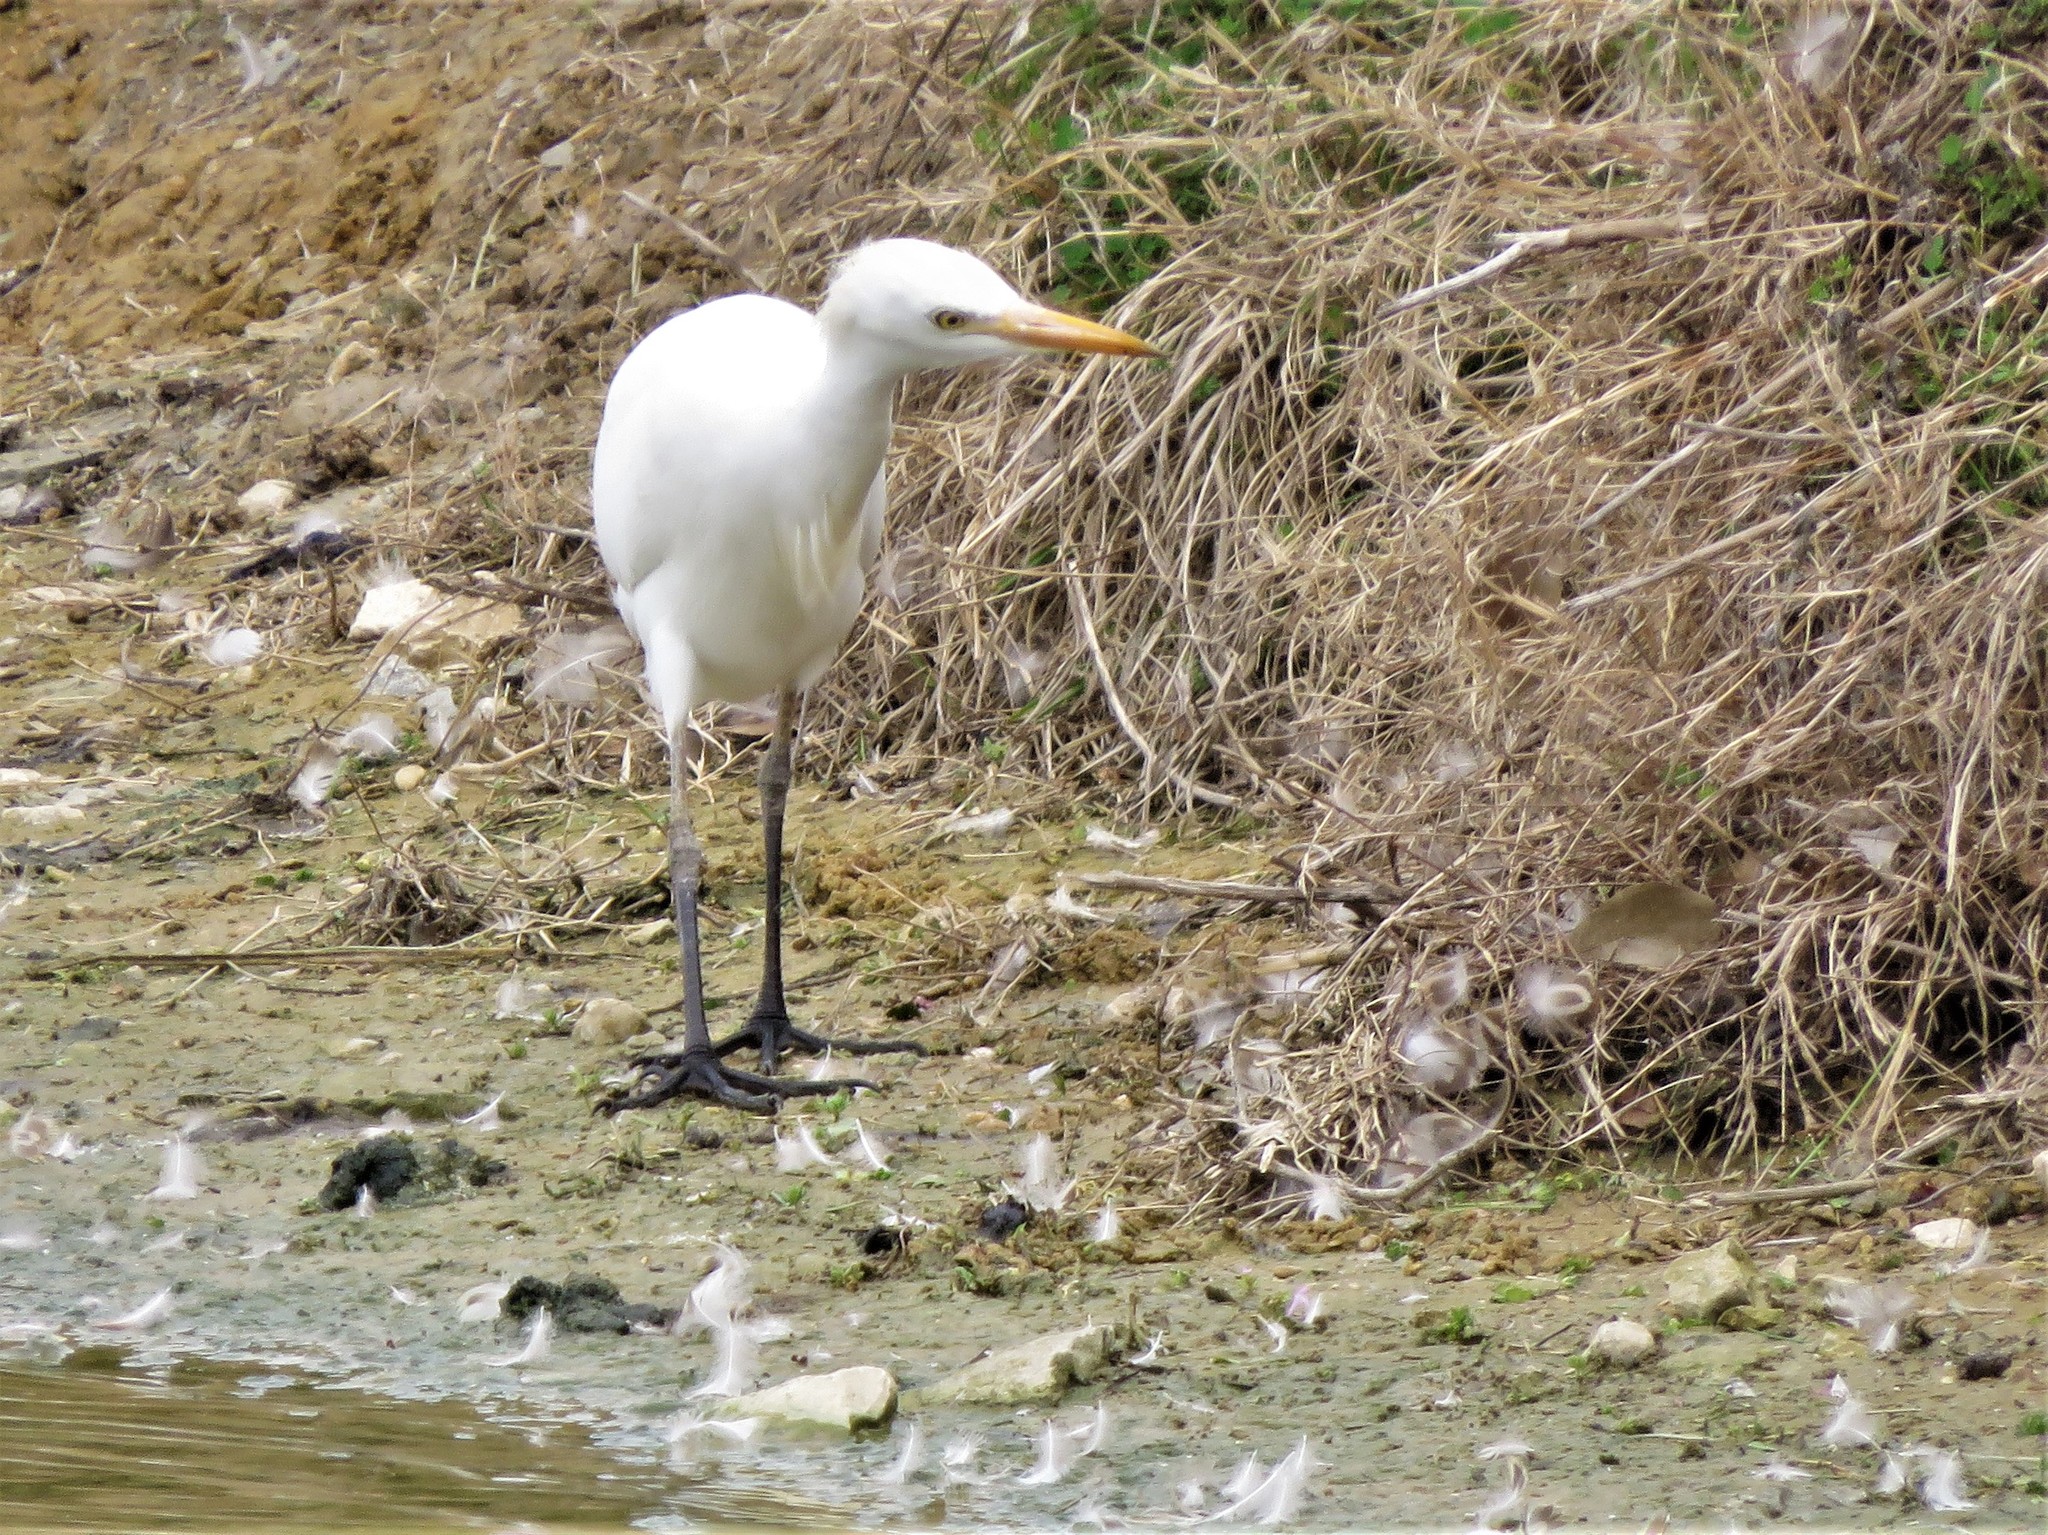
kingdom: Animalia
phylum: Chordata
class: Aves
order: Pelecaniformes
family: Ardeidae
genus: Bubulcus
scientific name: Bubulcus ibis
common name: Cattle egret
